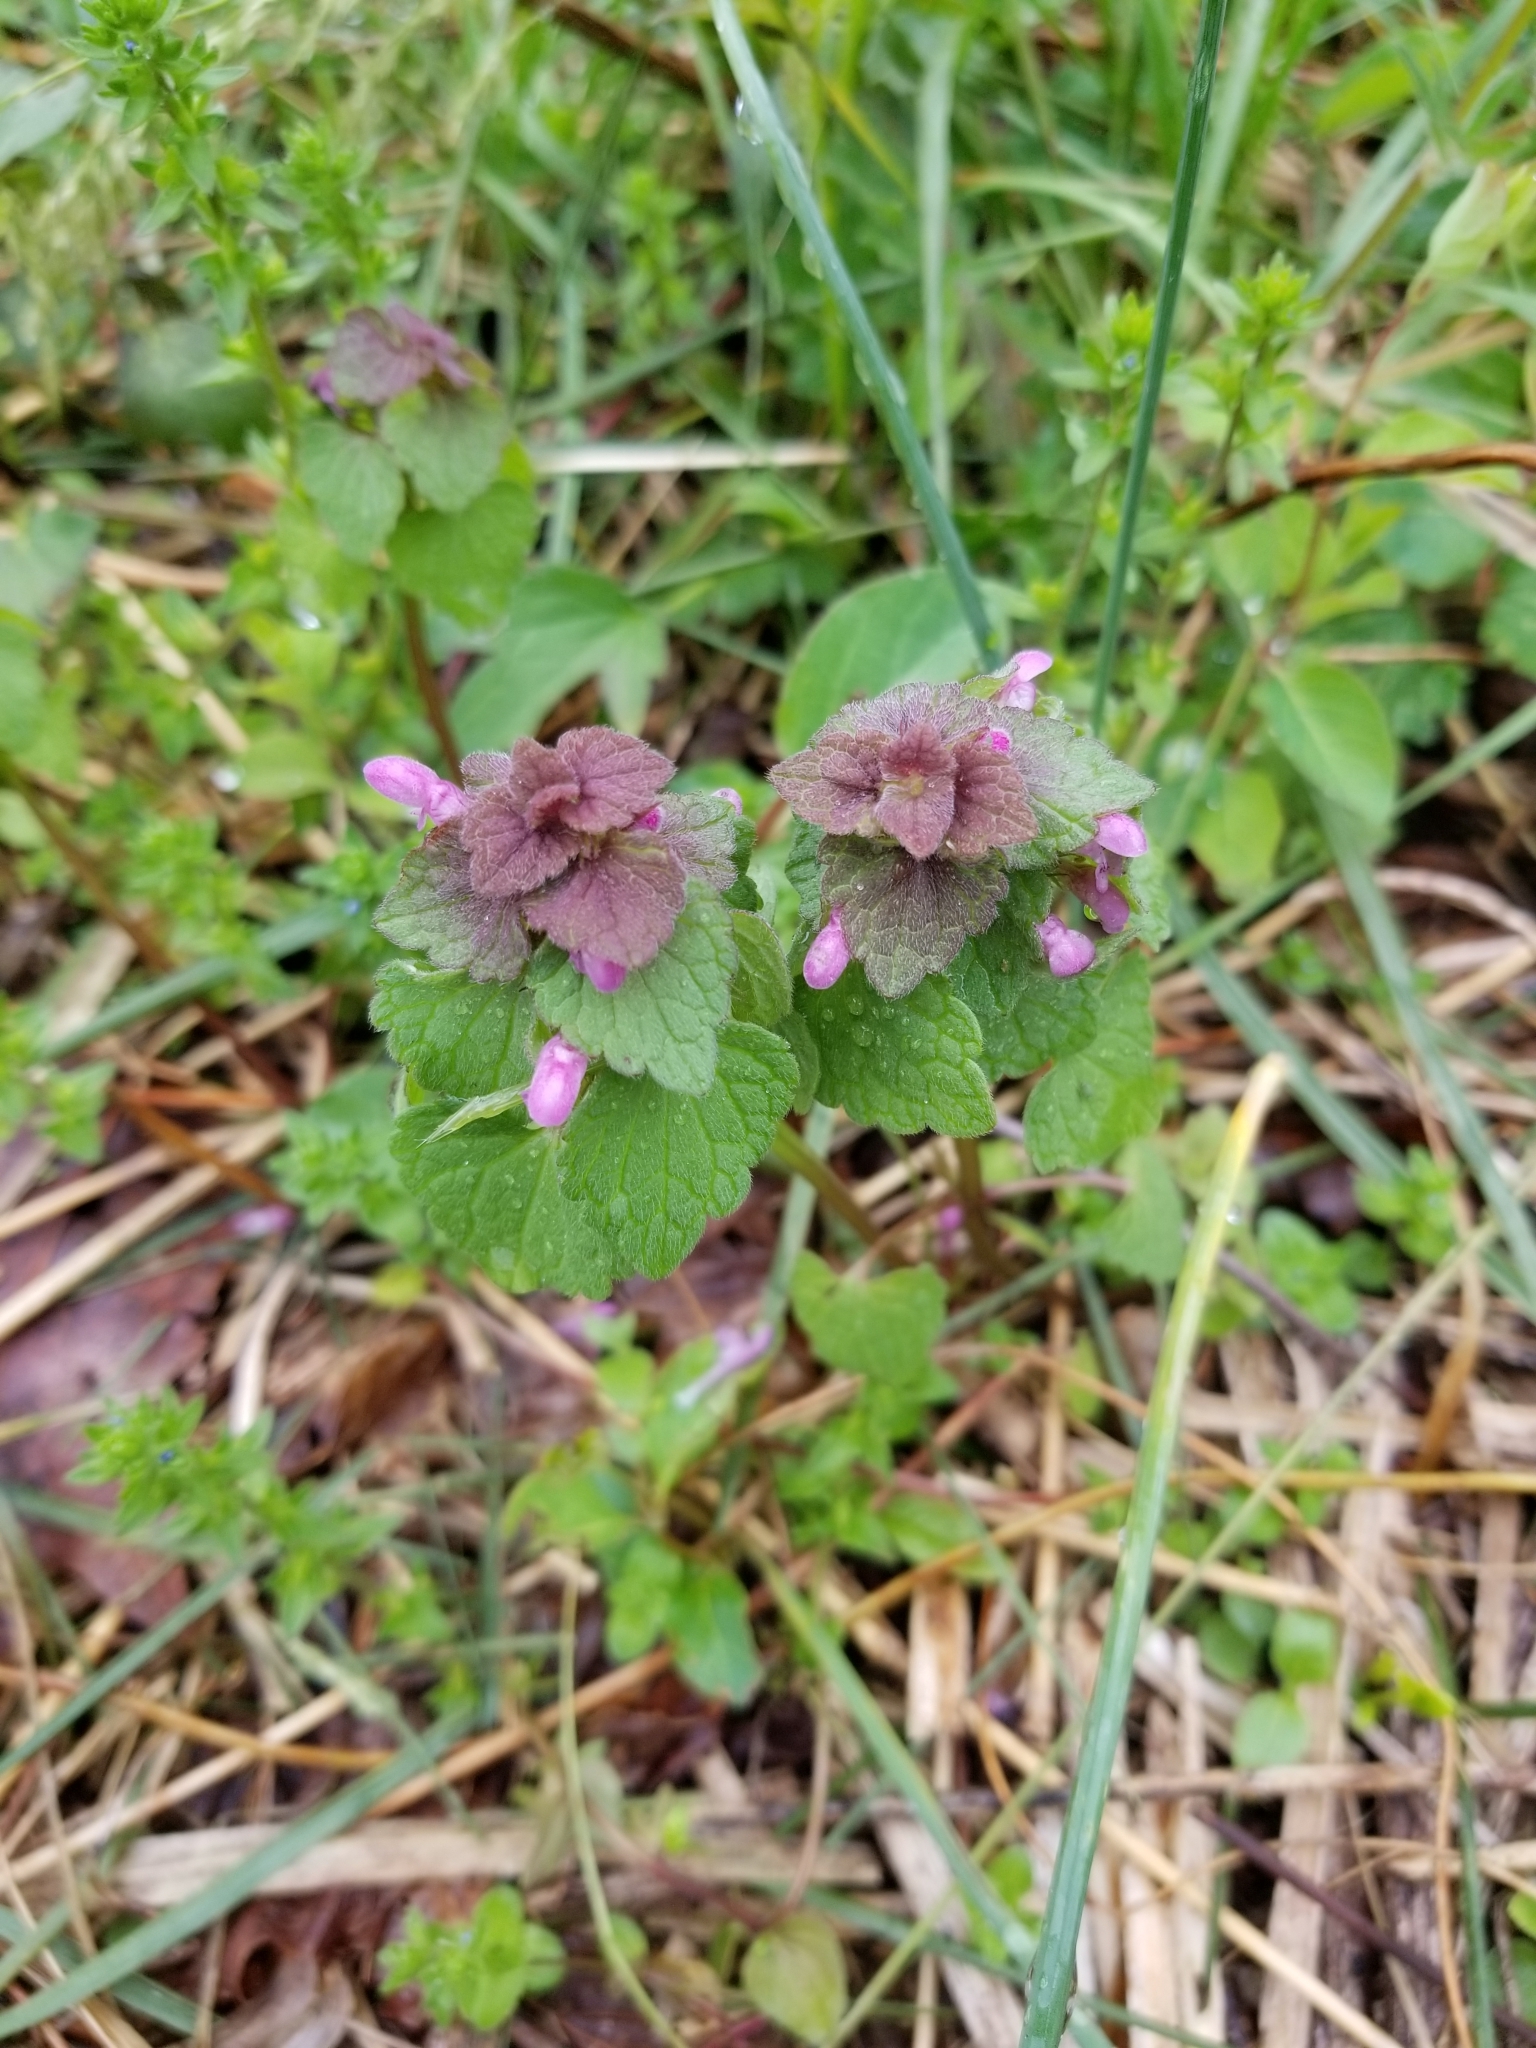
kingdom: Plantae
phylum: Tracheophyta
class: Magnoliopsida
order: Lamiales
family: Lamiaceae
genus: Lamium
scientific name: Lamium purpureum
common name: Red dead-nettle
